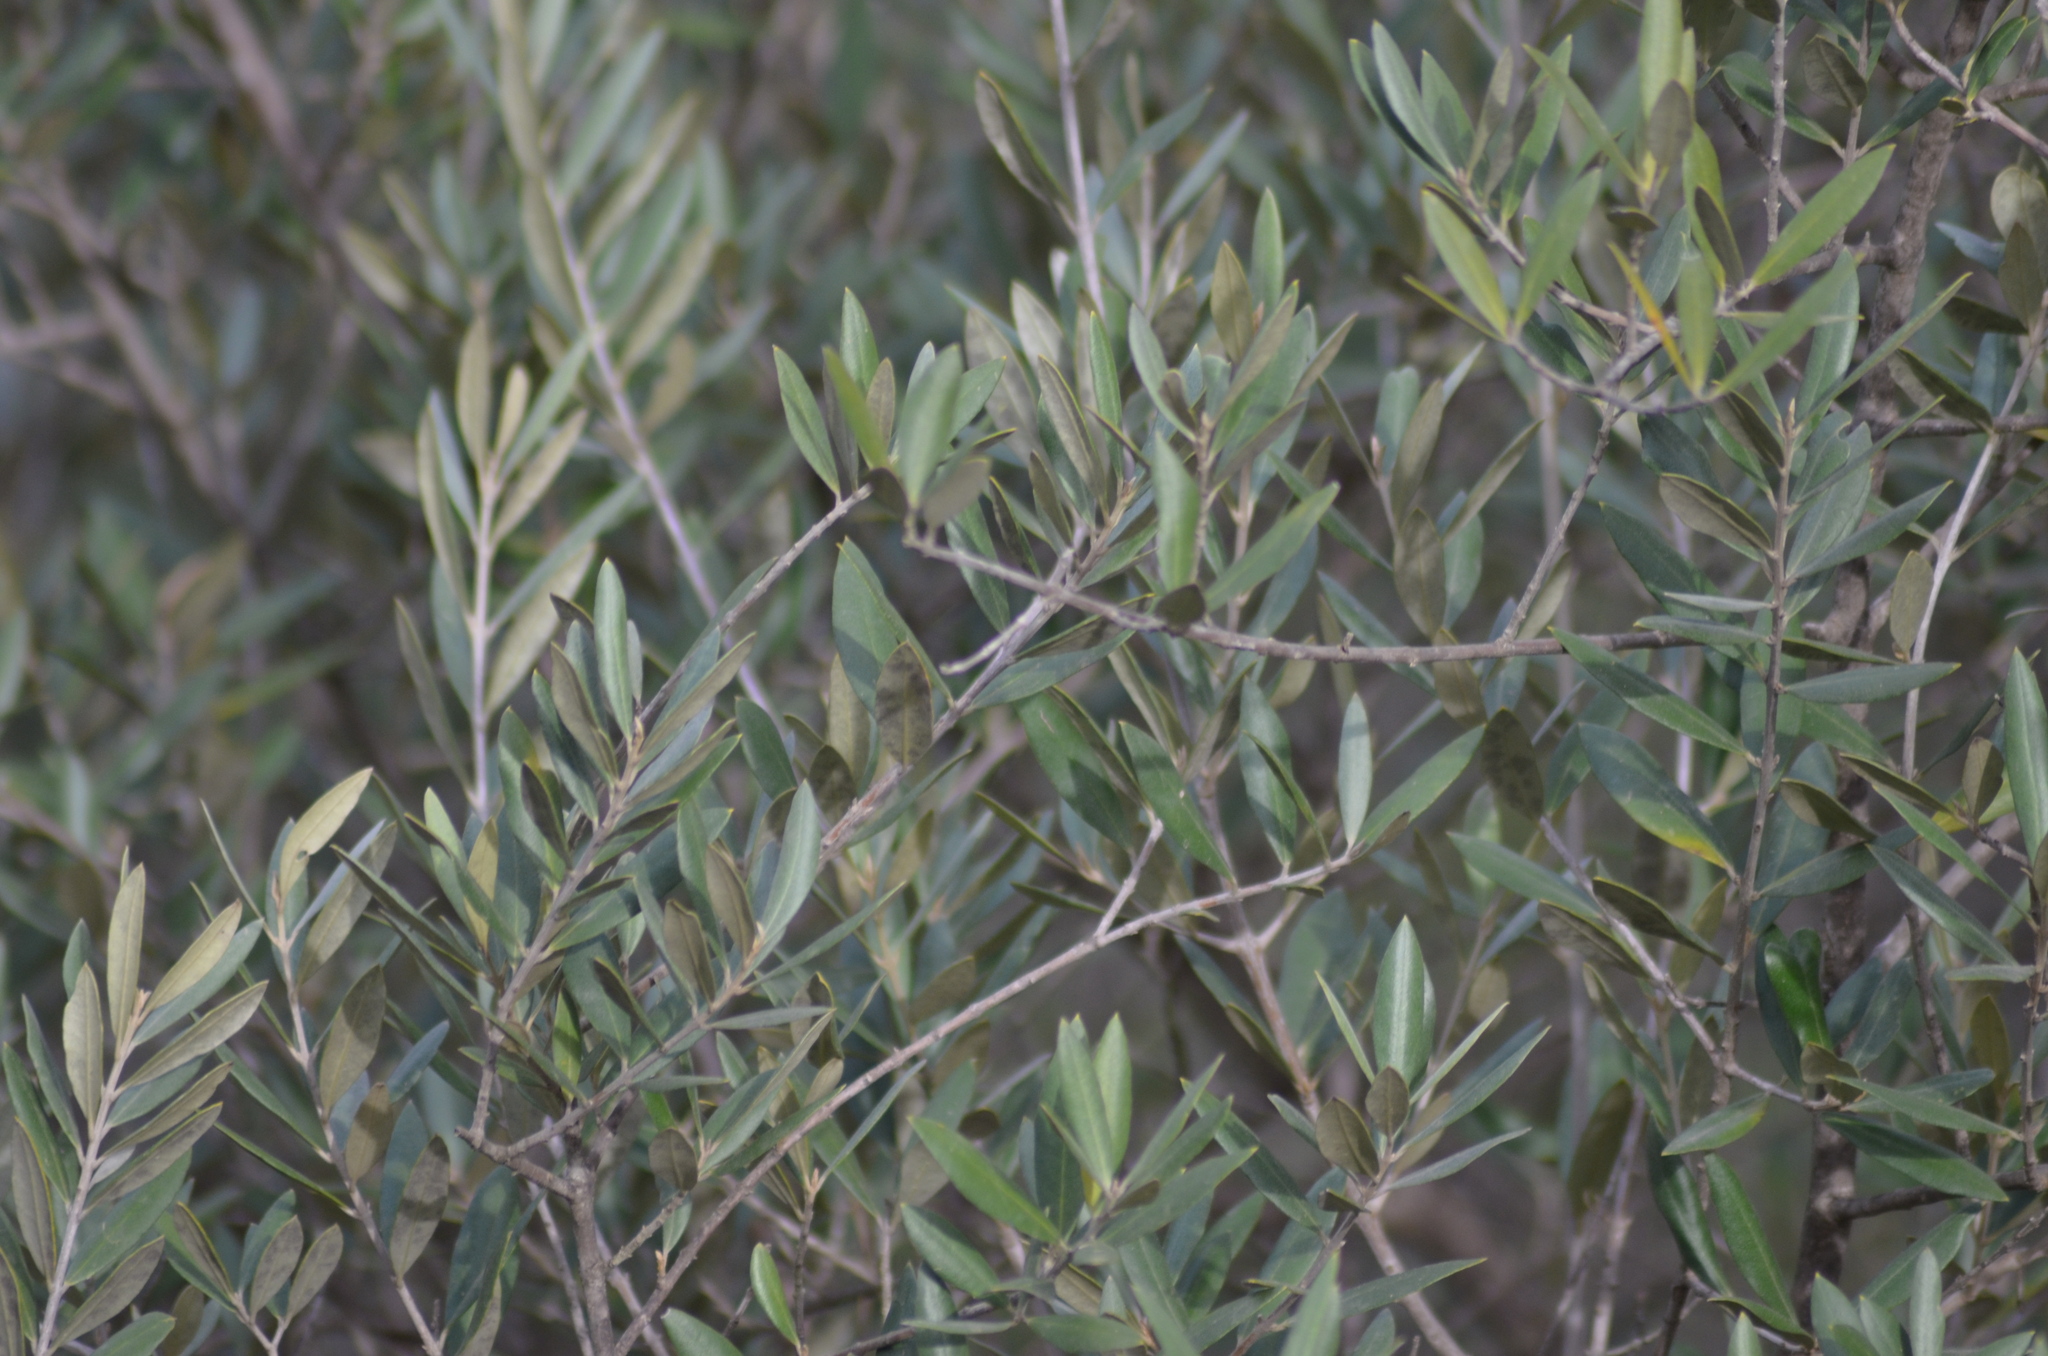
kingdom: Plantae
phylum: Tracheophyta
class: Magnoliopsida
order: Lamiales
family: Oleaceae
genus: Olea
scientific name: Olea europaea
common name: Olive
